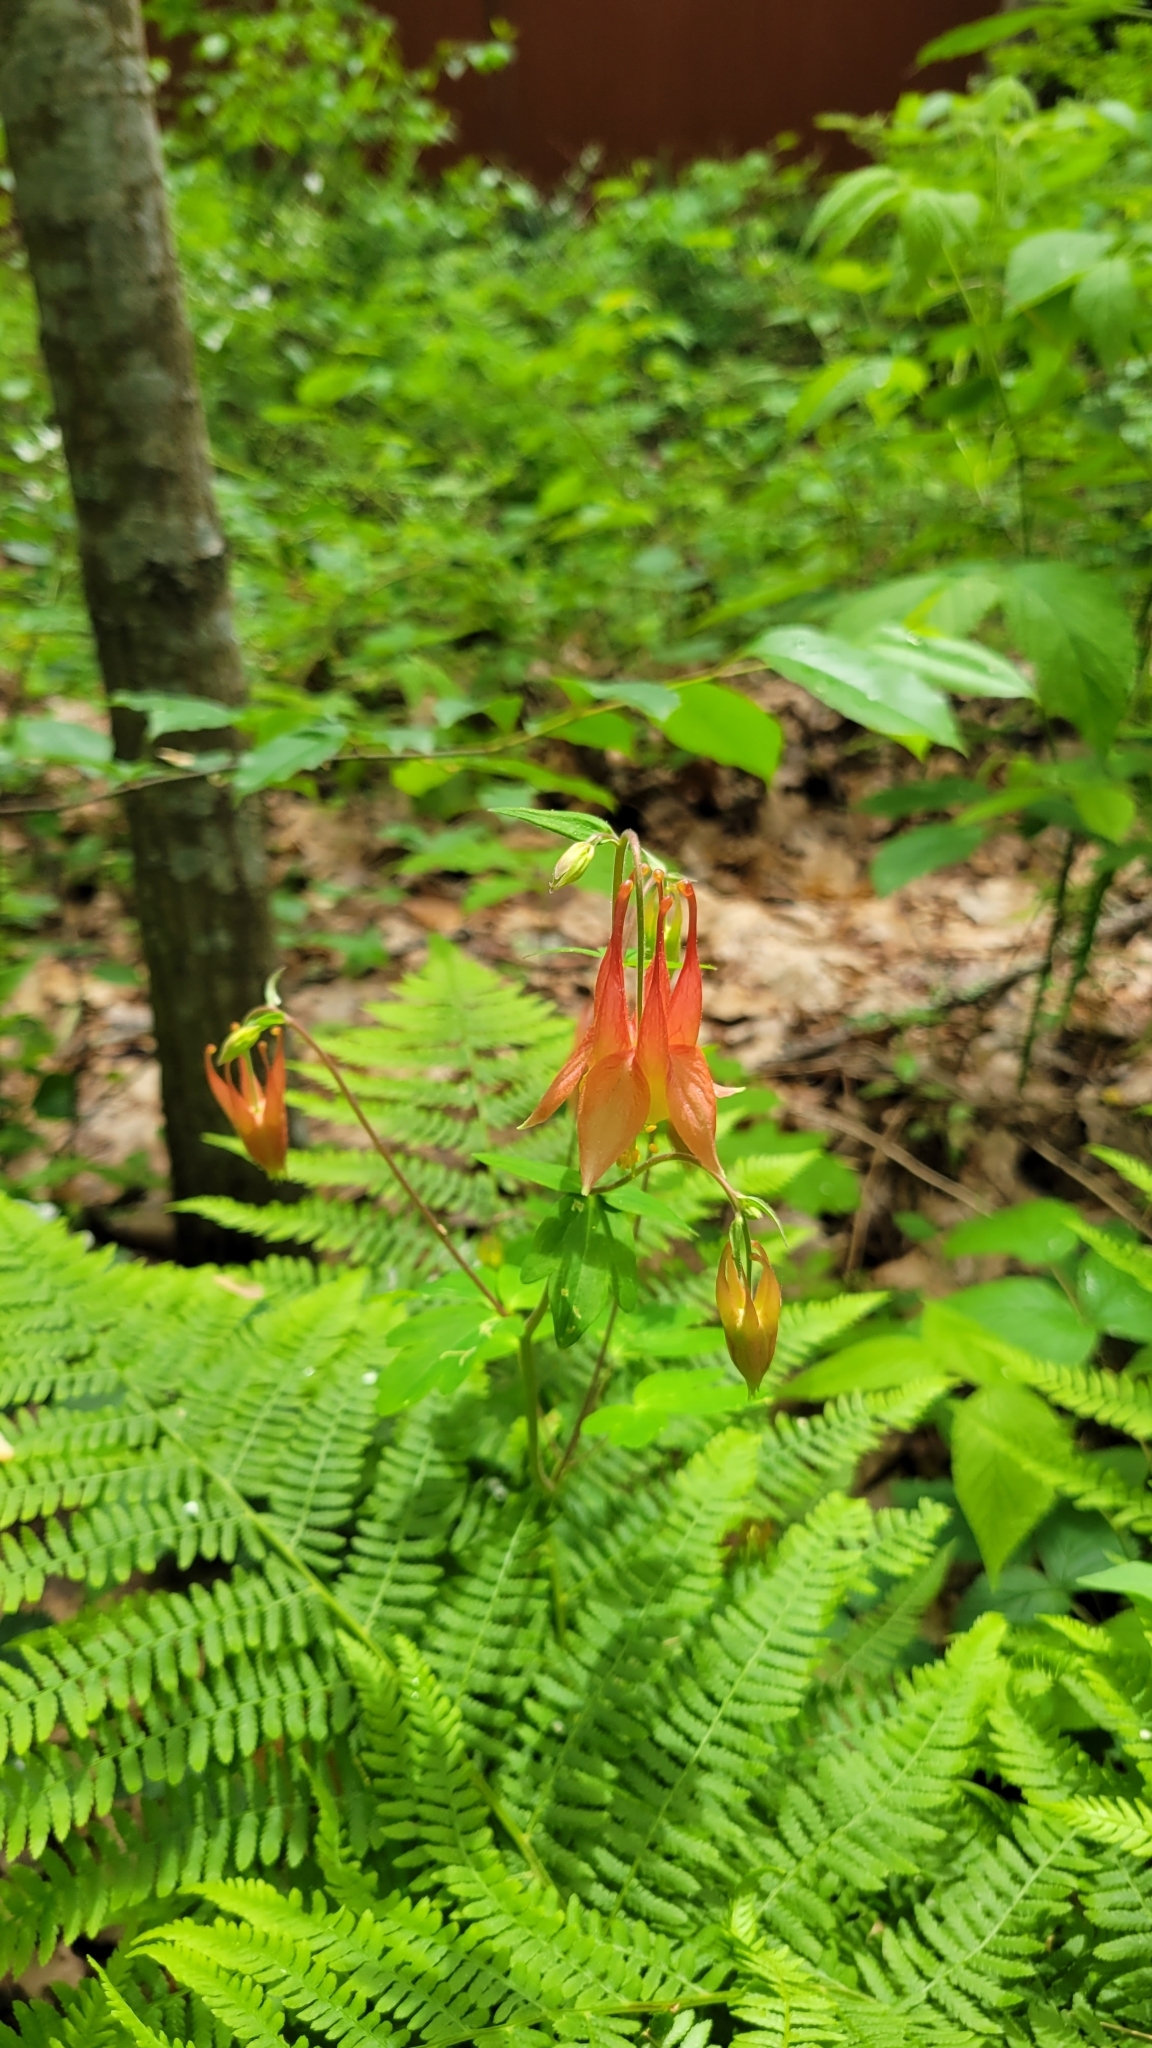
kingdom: Plantae
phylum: Tracheophyta
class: Magnoliopsida
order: Ranunculales
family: Ranunculaceae
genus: Aquilegia
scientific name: Aquilegia canadensis
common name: American columbine
